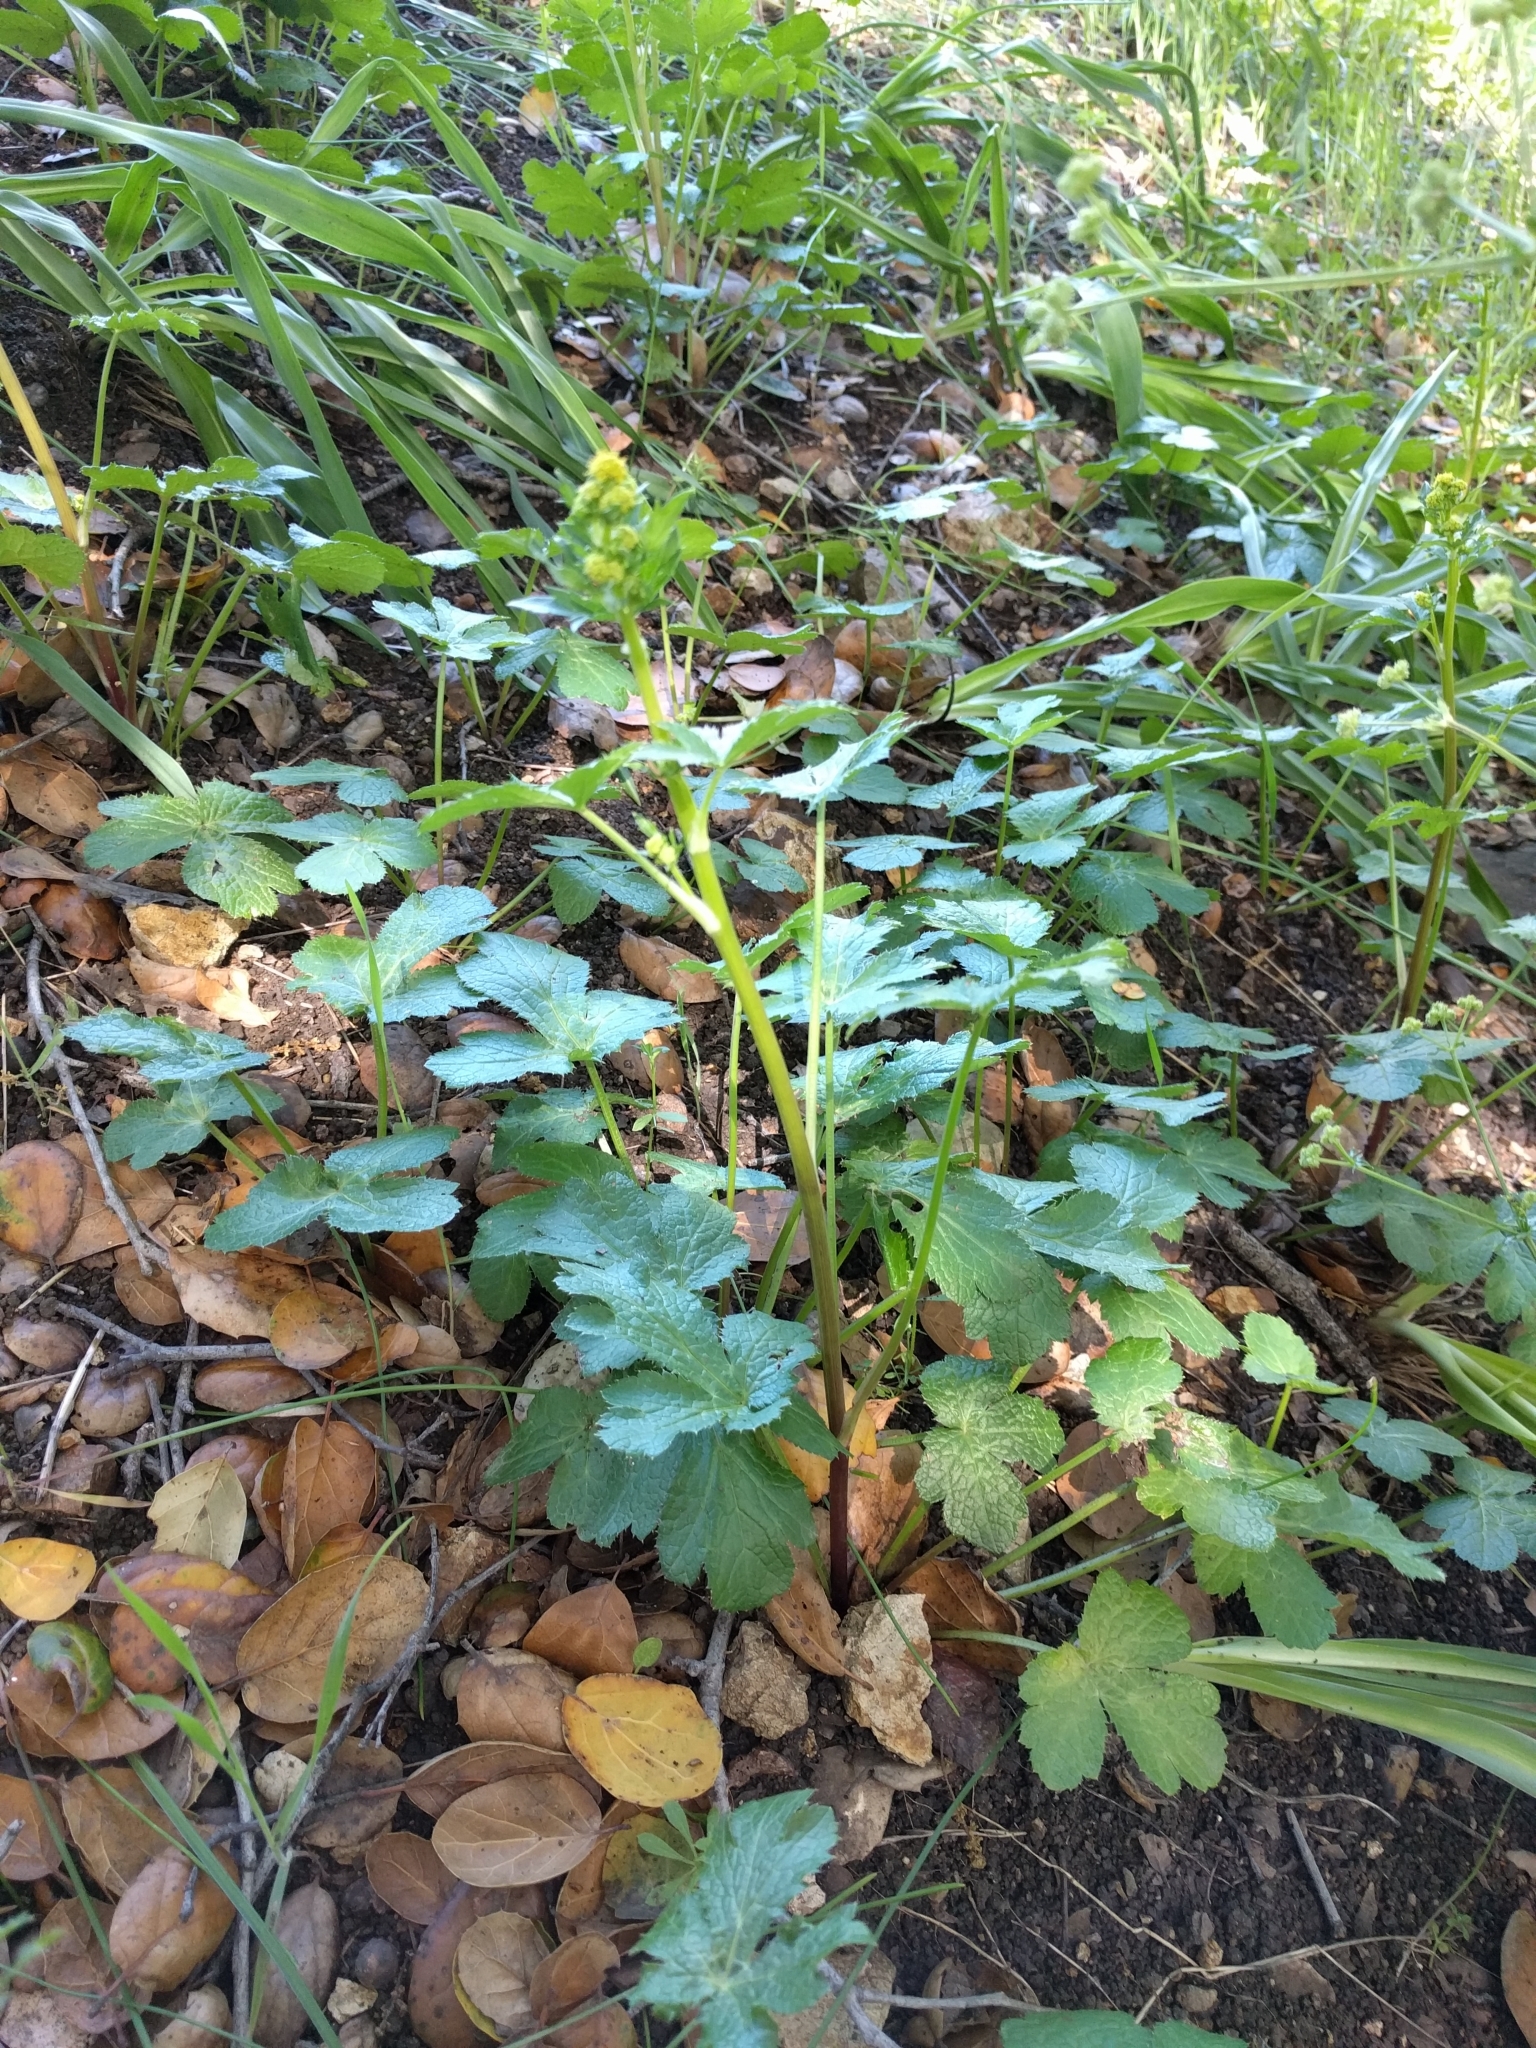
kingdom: Plantae
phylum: Tracheophyta
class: Magnoliopsida
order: Apiales
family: Apiaceae
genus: Sanicula
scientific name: Sanicula crassicaulis
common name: Western snakeroot
